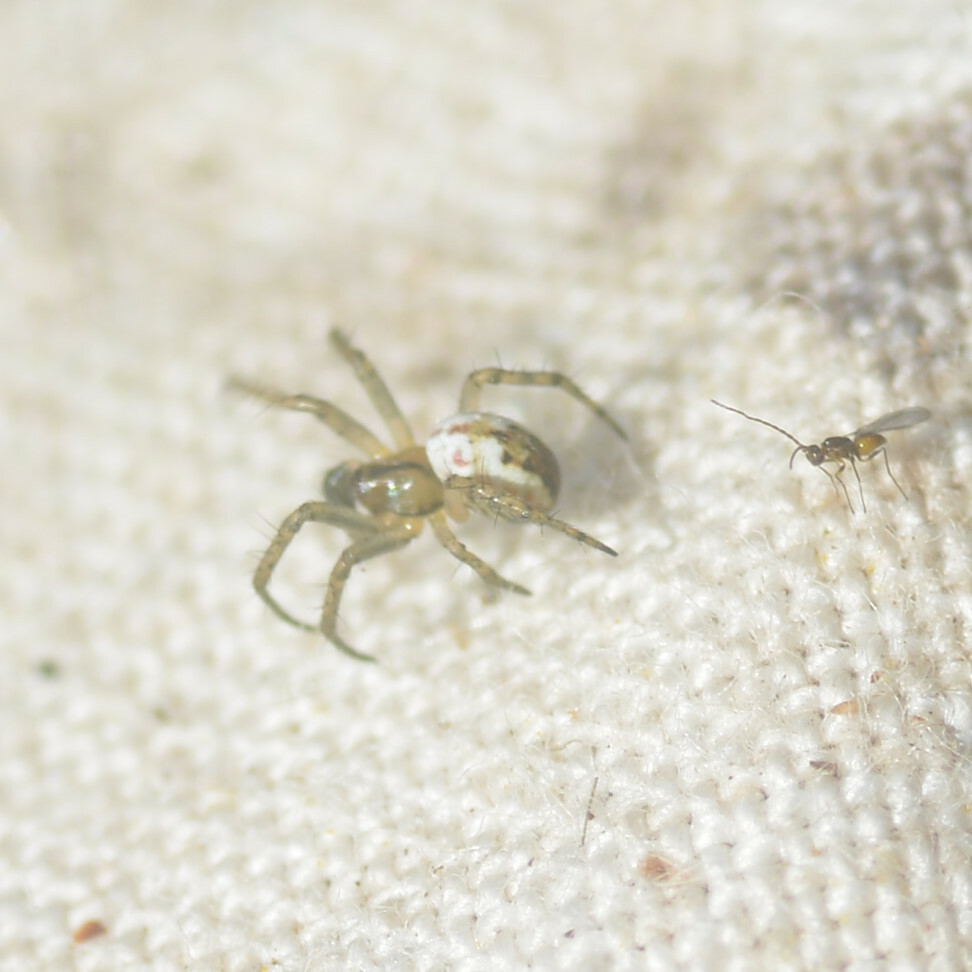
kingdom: Animalia
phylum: Arthropoda
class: Arachnida
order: Araneae
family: Araneidae
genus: Mangora
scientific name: Mangora acalypha
